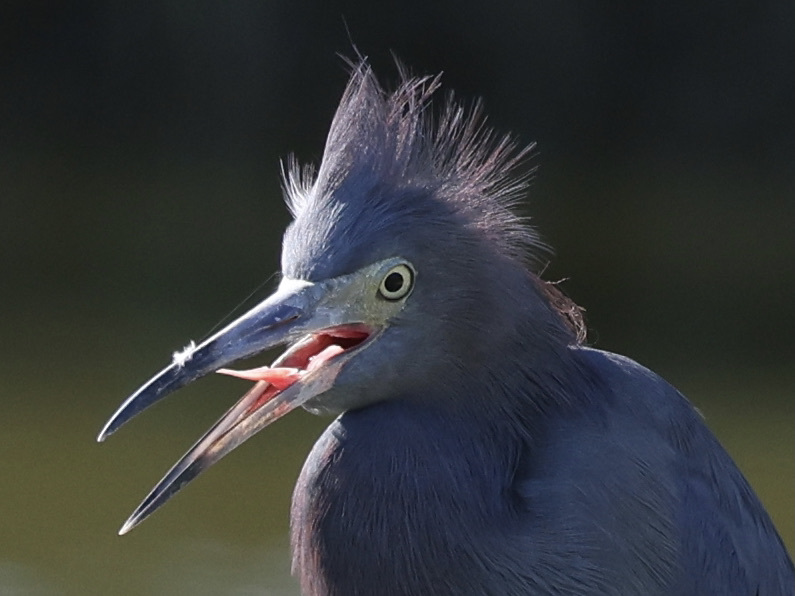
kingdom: Animalia
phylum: Chordata
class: Aves
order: Pelecaniformes
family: Ardeidae
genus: Egretta
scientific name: Egretta caerulea
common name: Little blue heron
